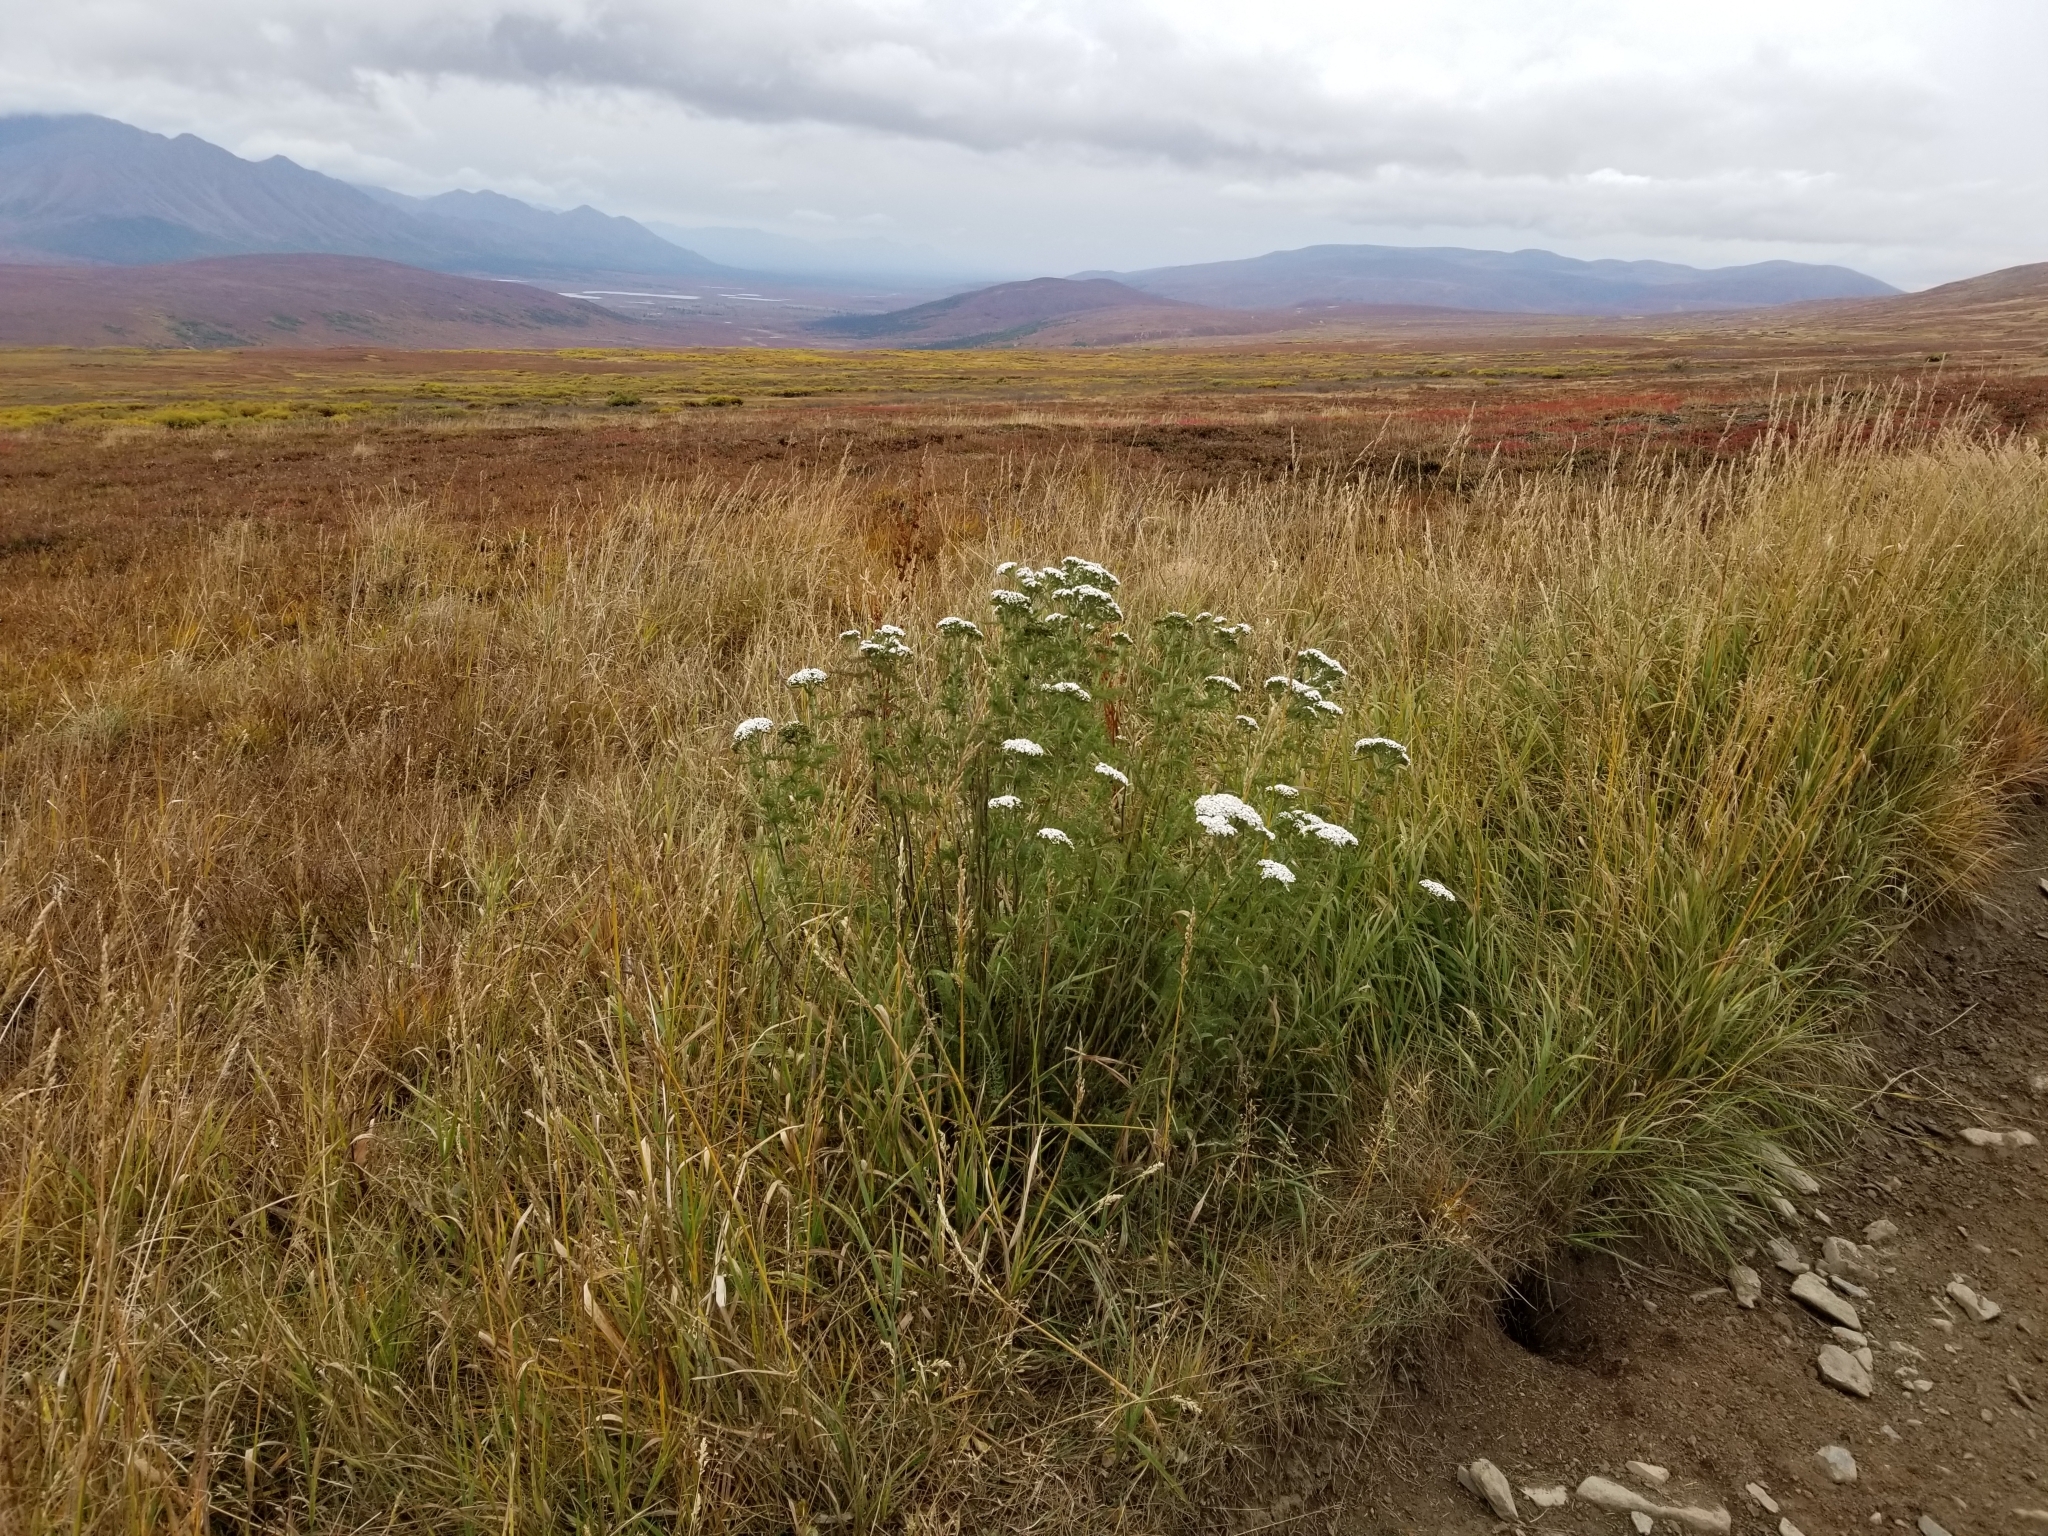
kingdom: Plantae
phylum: Tracheophyta
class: Magnoliopsida
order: Asterales
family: Asteraceae
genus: Achillea
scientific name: Achillea millefolium
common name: Yarrow
